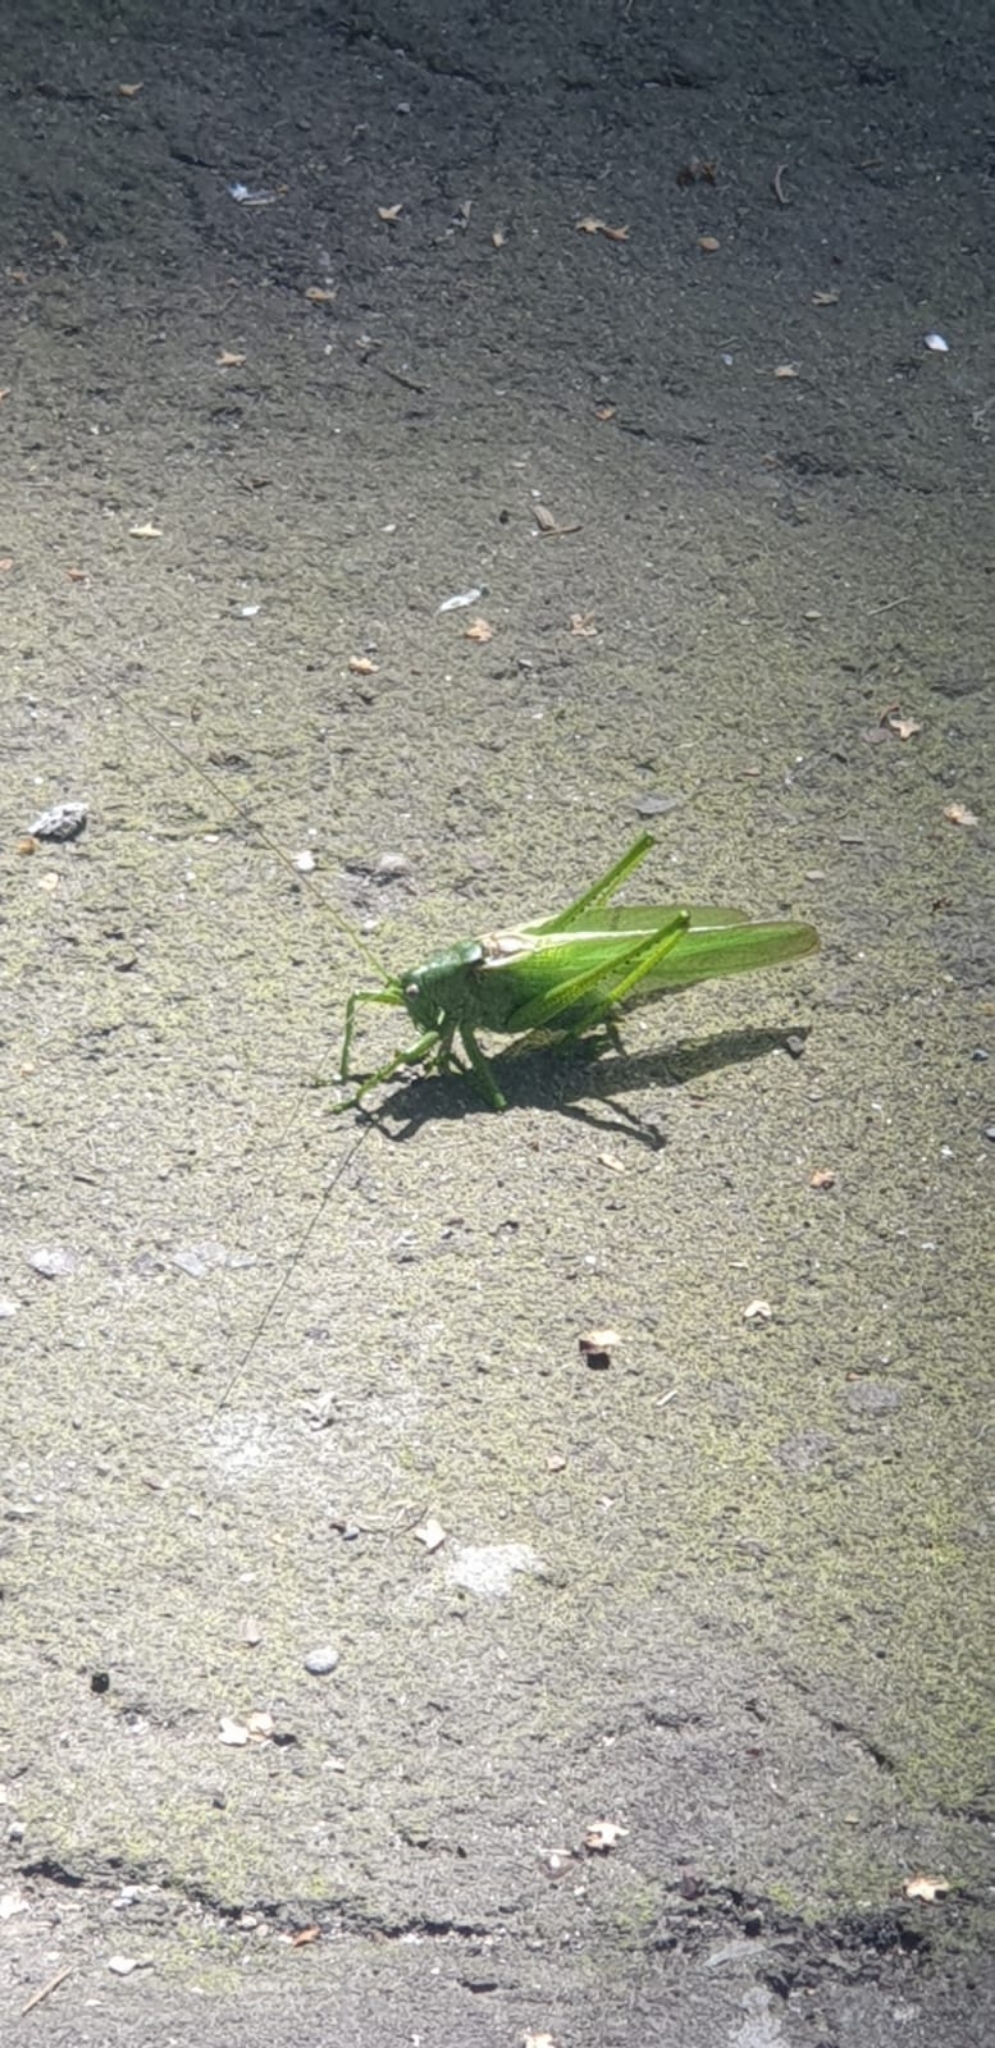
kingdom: Animalia
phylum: Arthropoda
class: Insecta
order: Orthoptera
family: Tettigoniidae
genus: Tettigonia
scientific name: Tettigonia caudata
